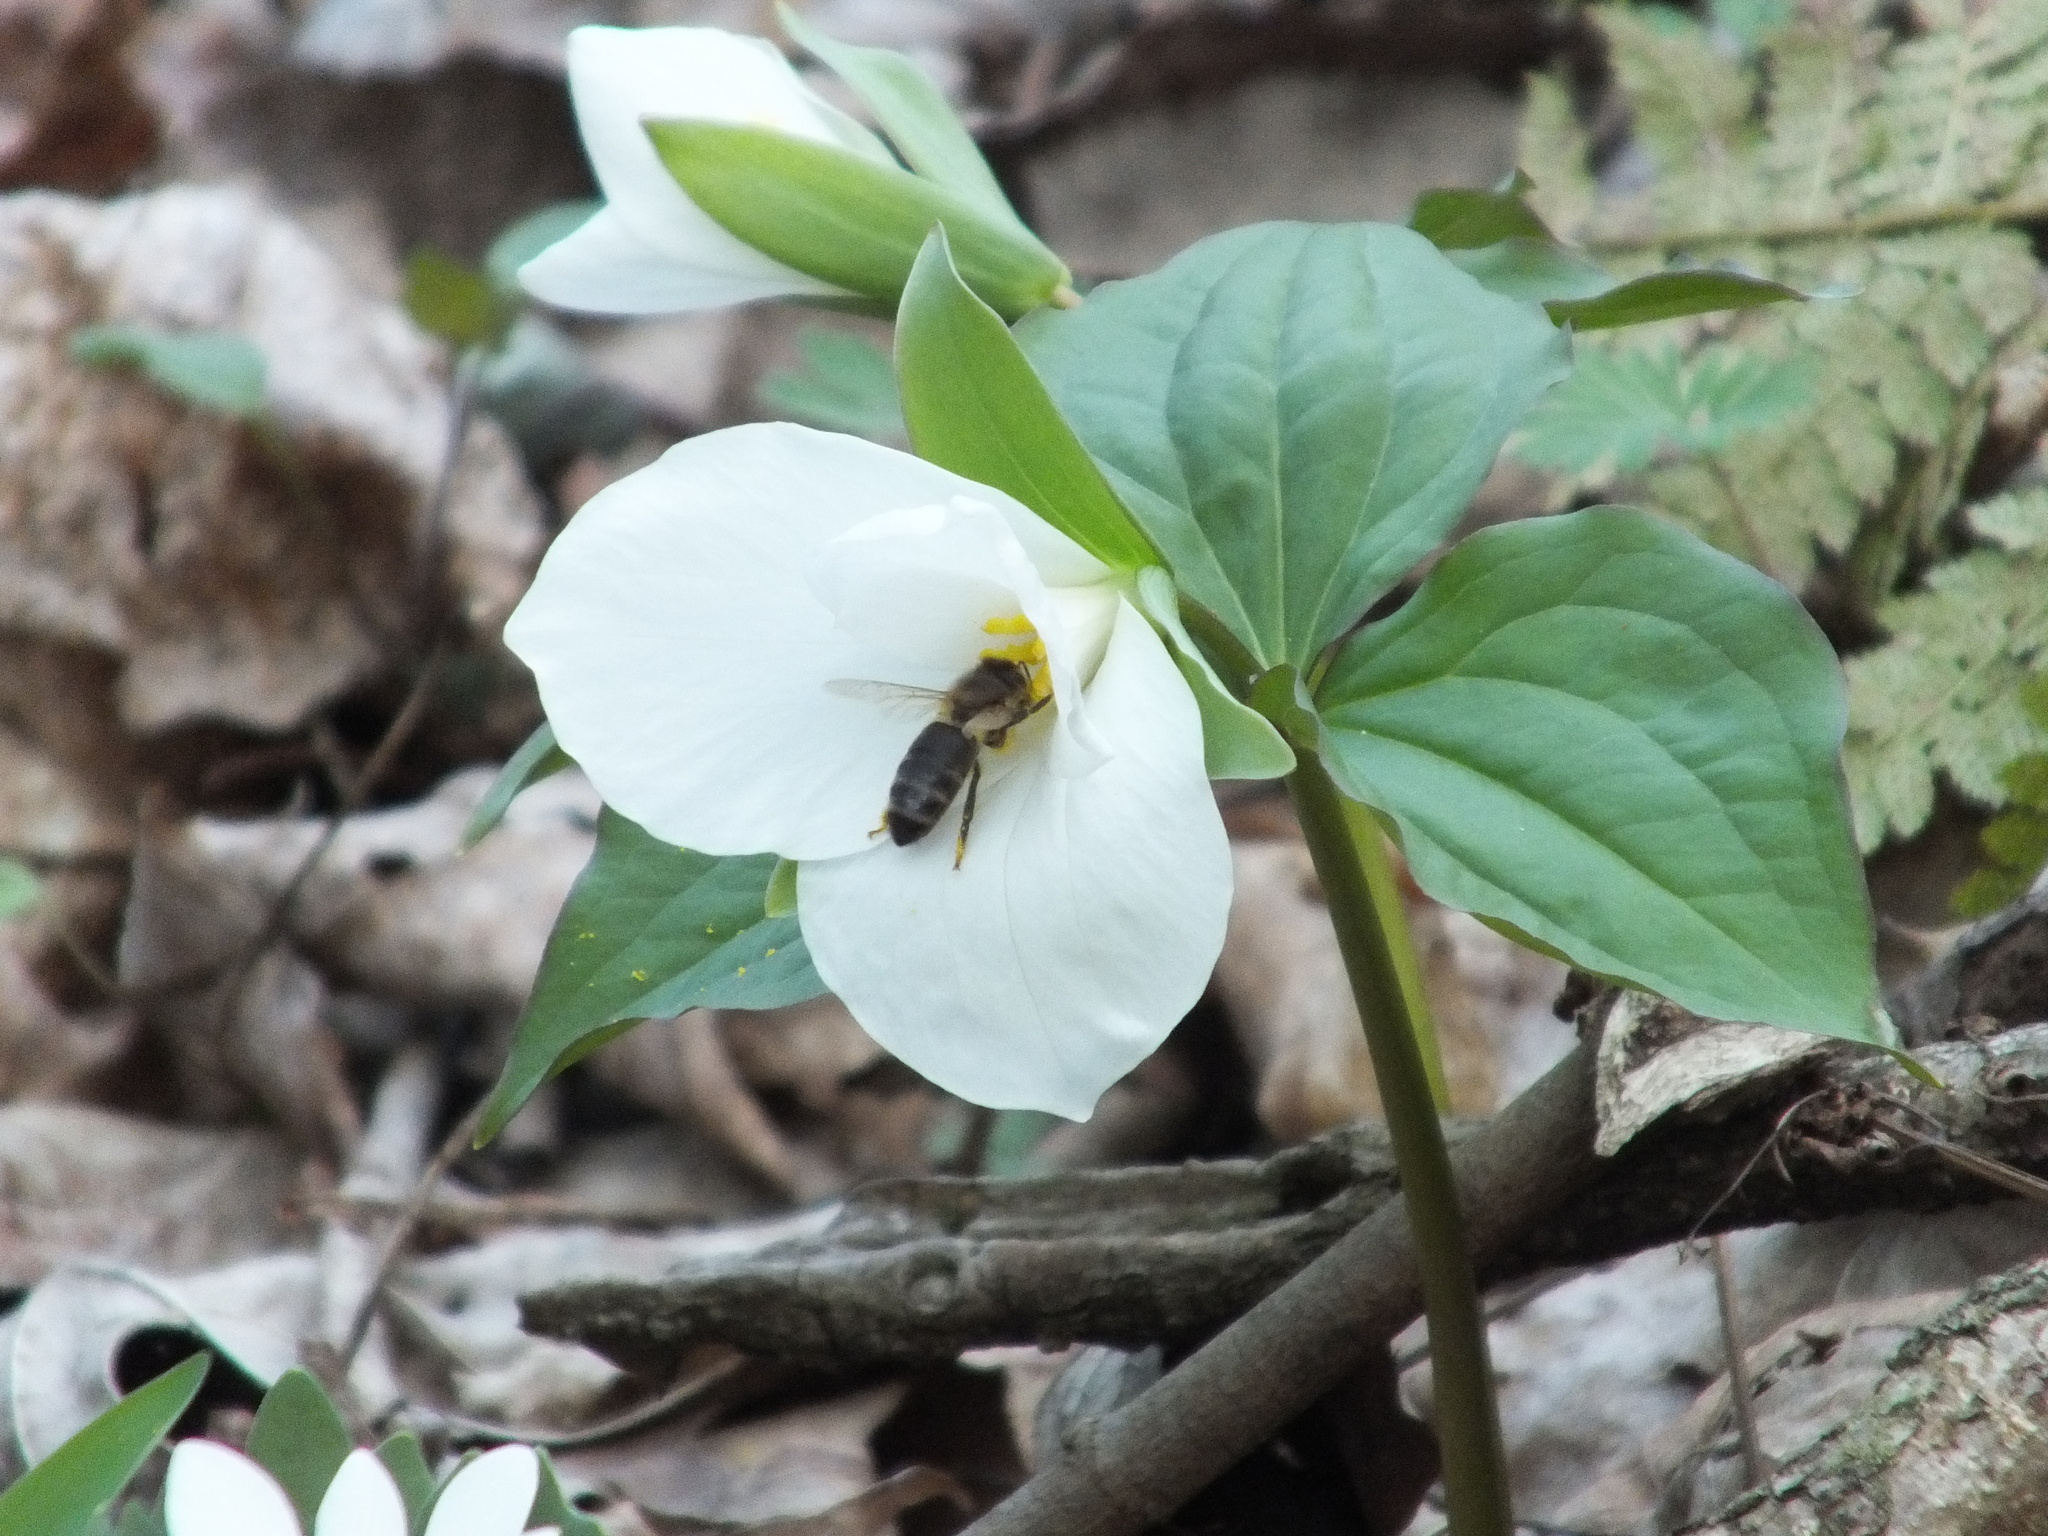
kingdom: Animalia
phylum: Arthropoda
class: Insecta
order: Hymenoptera
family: Apidae
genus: Apis
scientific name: Apis mellifera
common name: Honey bee
